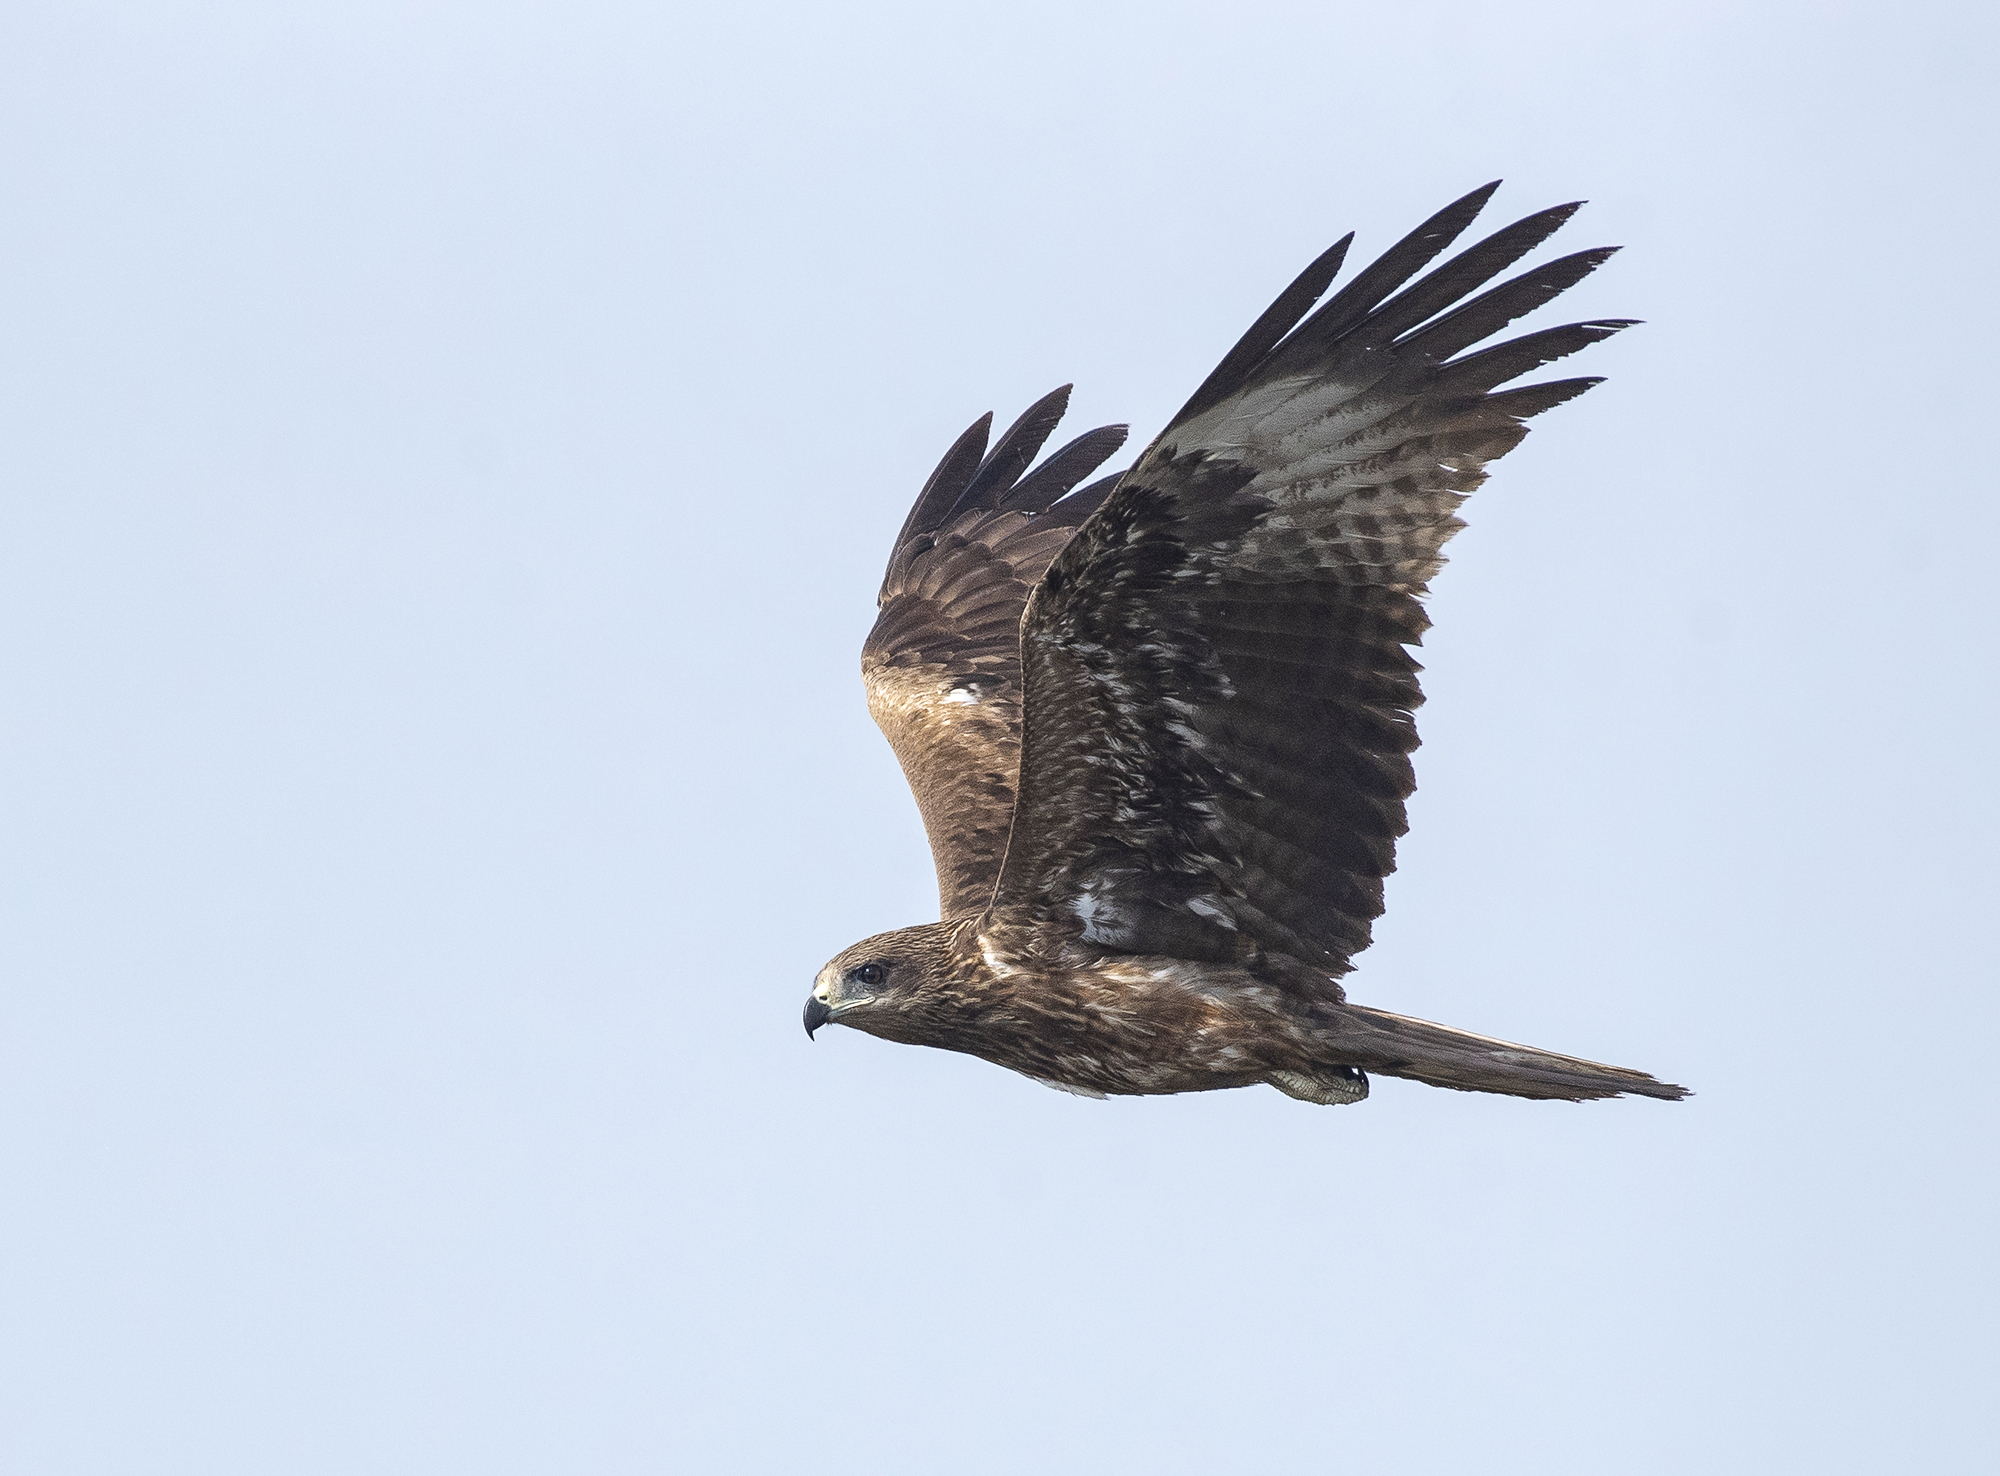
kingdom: Animalia
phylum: Chordata
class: Aves
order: Accipitriformes
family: Accipitridae
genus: Milvus
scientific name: Milvus migrans
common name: Black kite
